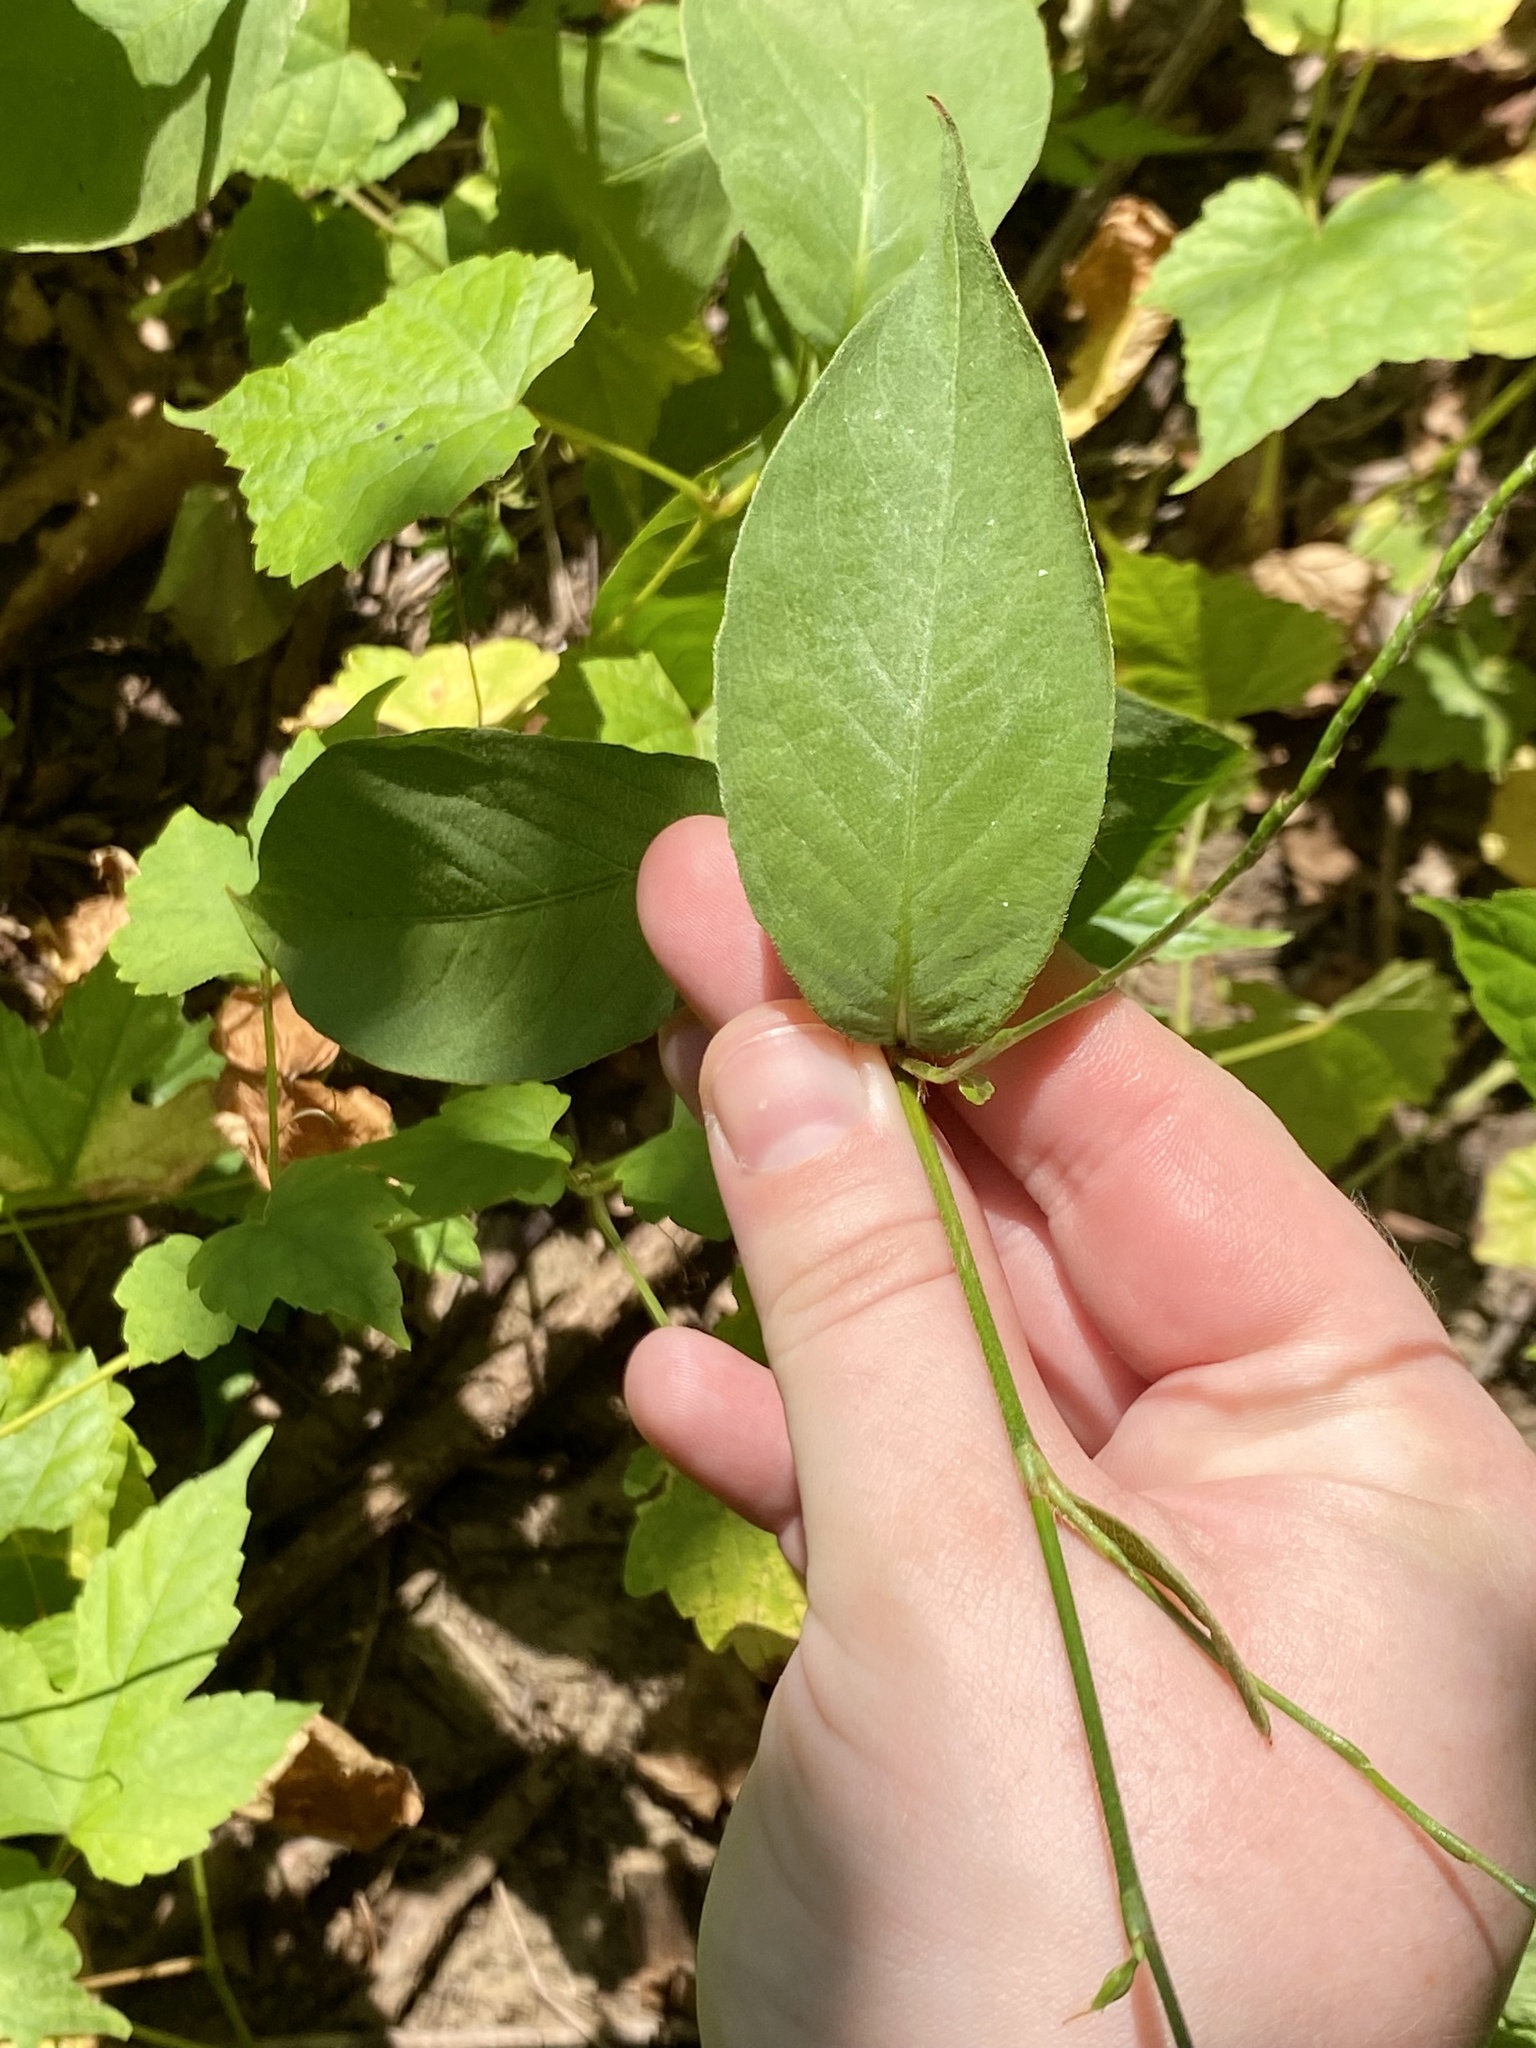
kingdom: Plantae
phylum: Tracheophyta
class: Magnoliopsida
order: Caryophyllales
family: Polygonaceae
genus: Persicaria
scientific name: Persicaria virginiana
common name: Jumpseed
